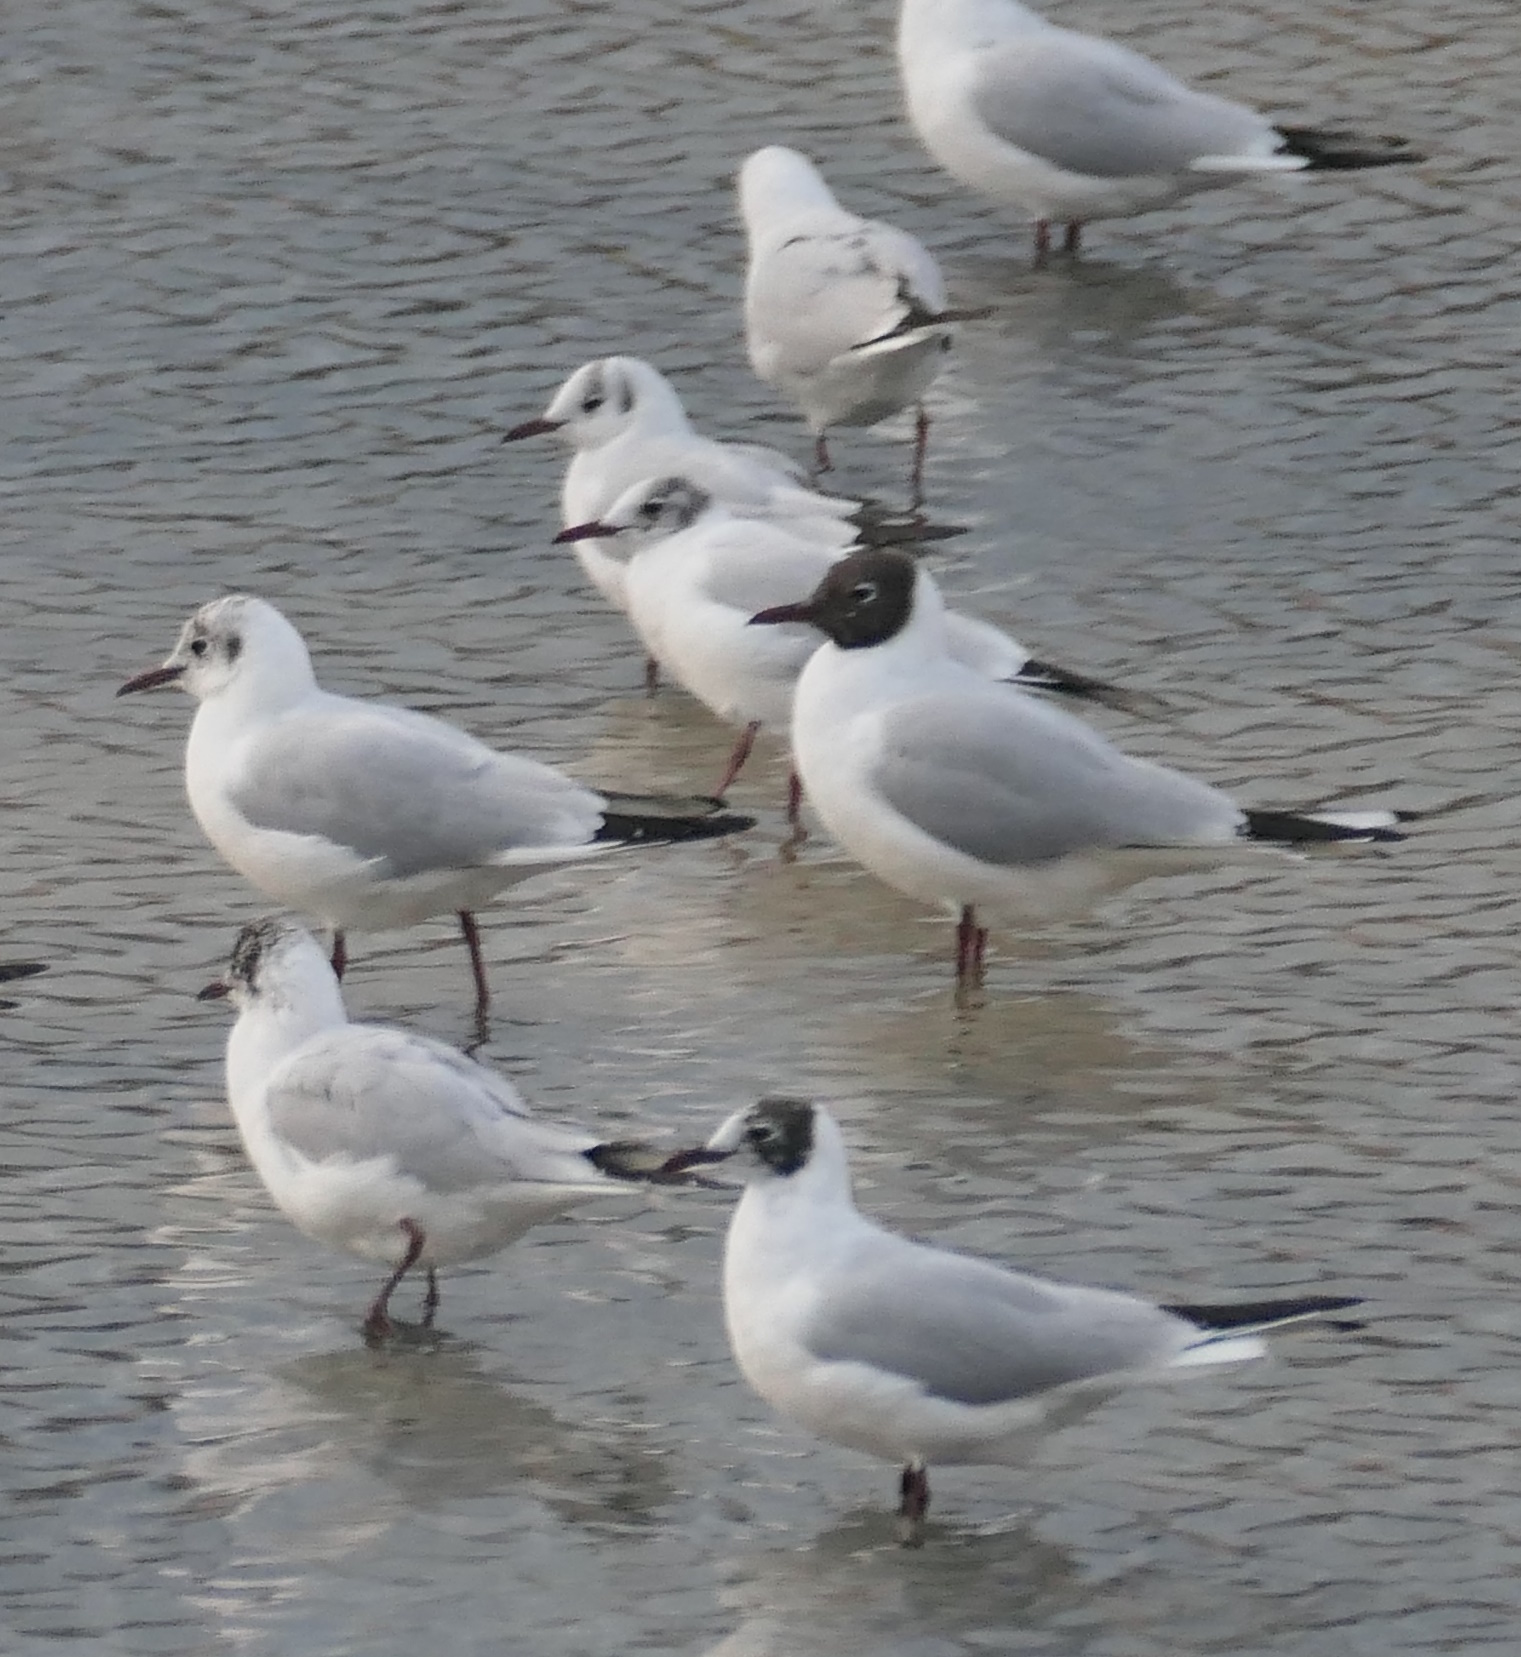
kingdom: Animalia
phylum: Chordata
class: Aves
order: Charadriiformes
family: Laridae
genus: Chroicocephalus
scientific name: Chroicocephalus ridibundus
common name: Black-headed gull
